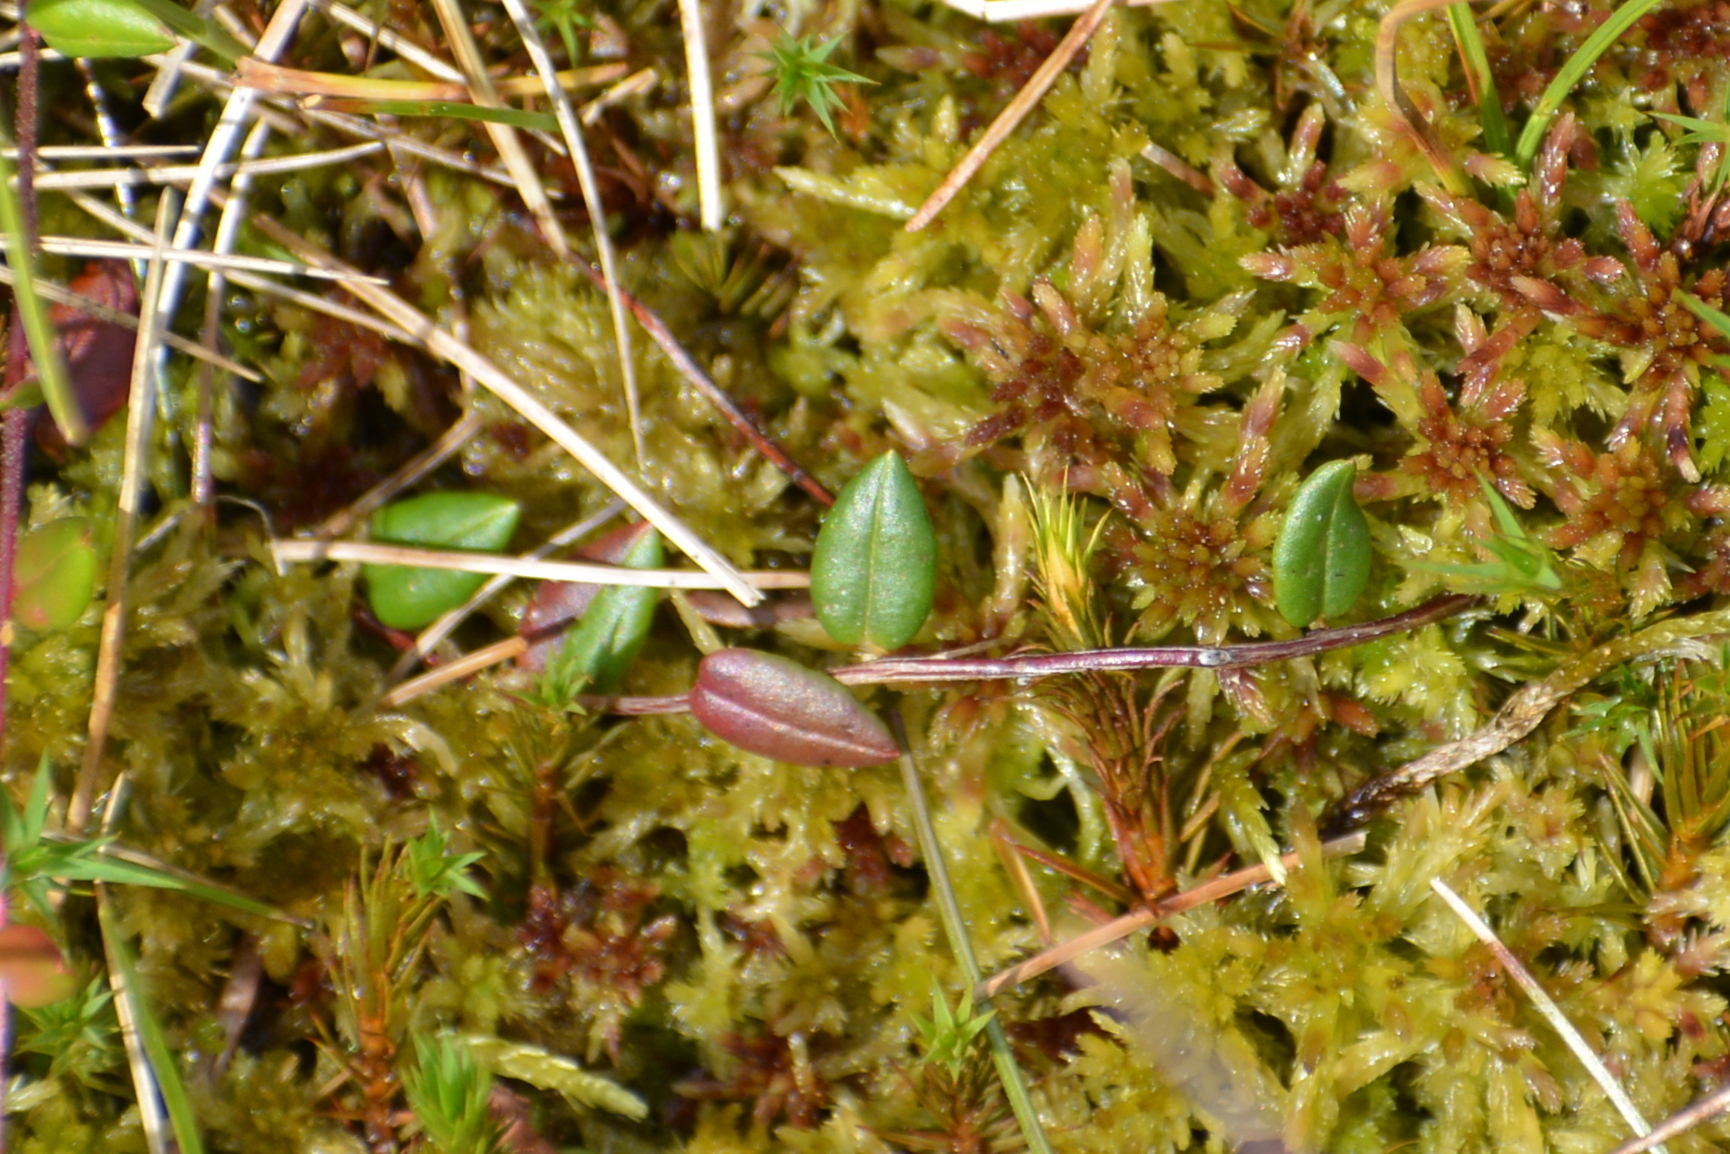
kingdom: Plantae
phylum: Tracheophyta
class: Magnoliopsida
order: Ericales
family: Ericaceae
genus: Vaccinium
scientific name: Vaccinium oxycoccos
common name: Cranberry
